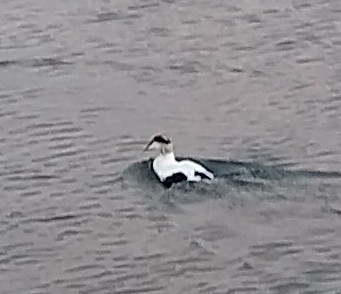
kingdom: Animalia
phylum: Chordata
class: Aves
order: Anseriformes
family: Anatidae
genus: Somateria
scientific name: Somateria mollissima
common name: Common eider
